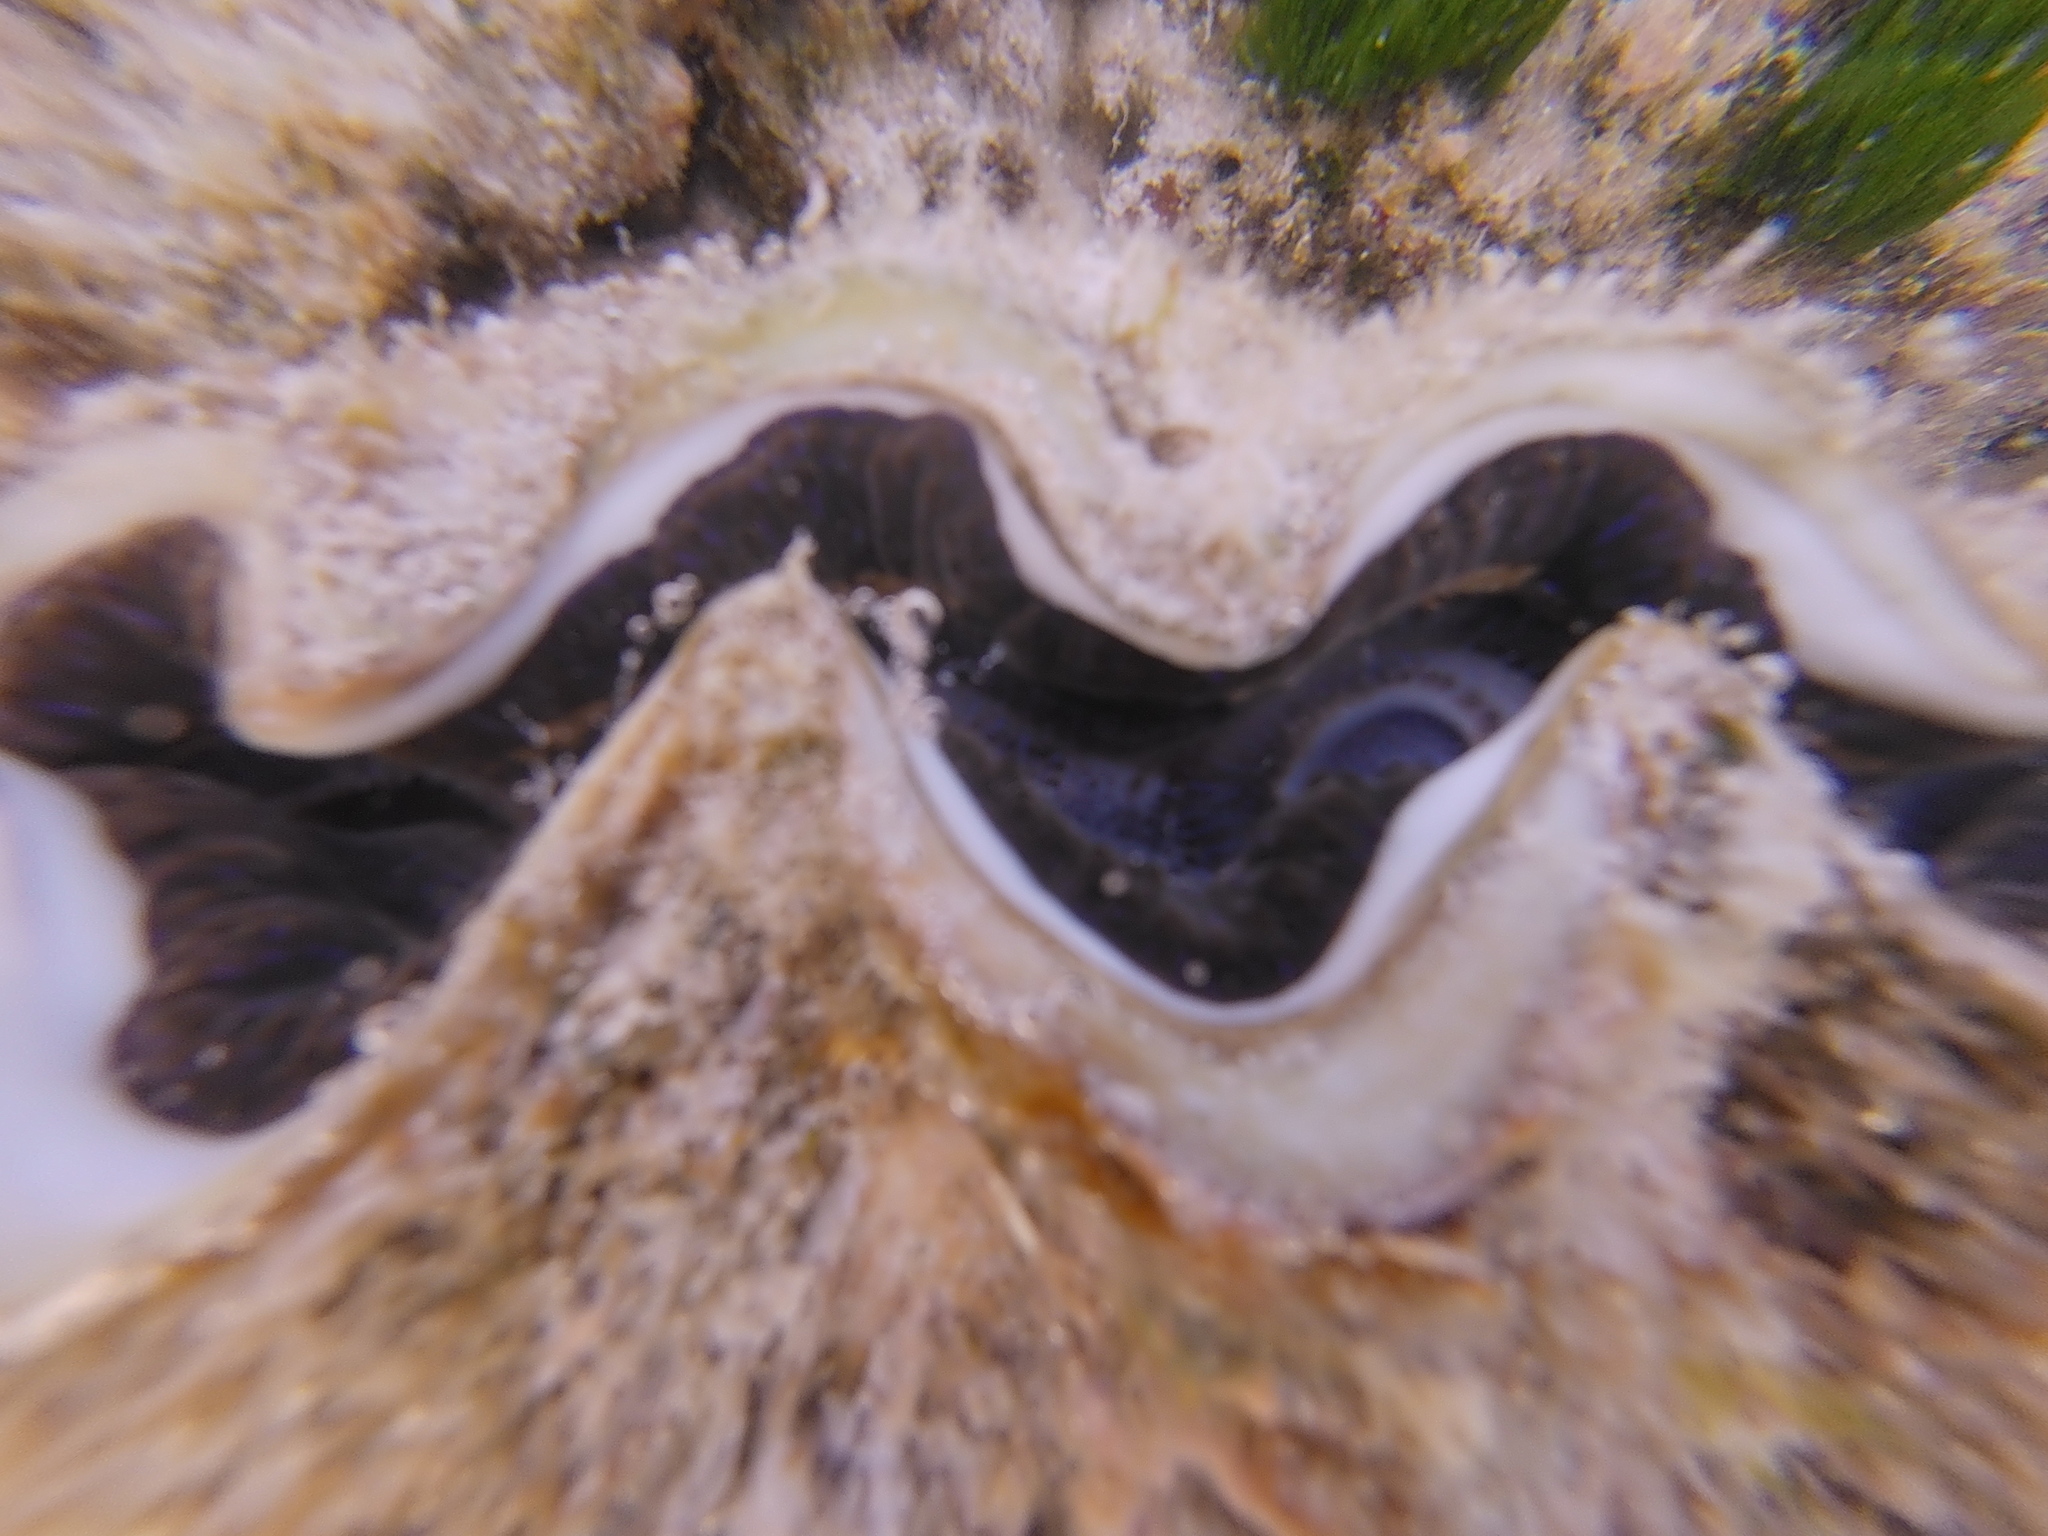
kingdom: Animalia
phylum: Mollusca
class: Bivalvia
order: Cardiida
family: Cardiidae
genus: Tridacna
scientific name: Tridacna maxima
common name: Small giant clam
